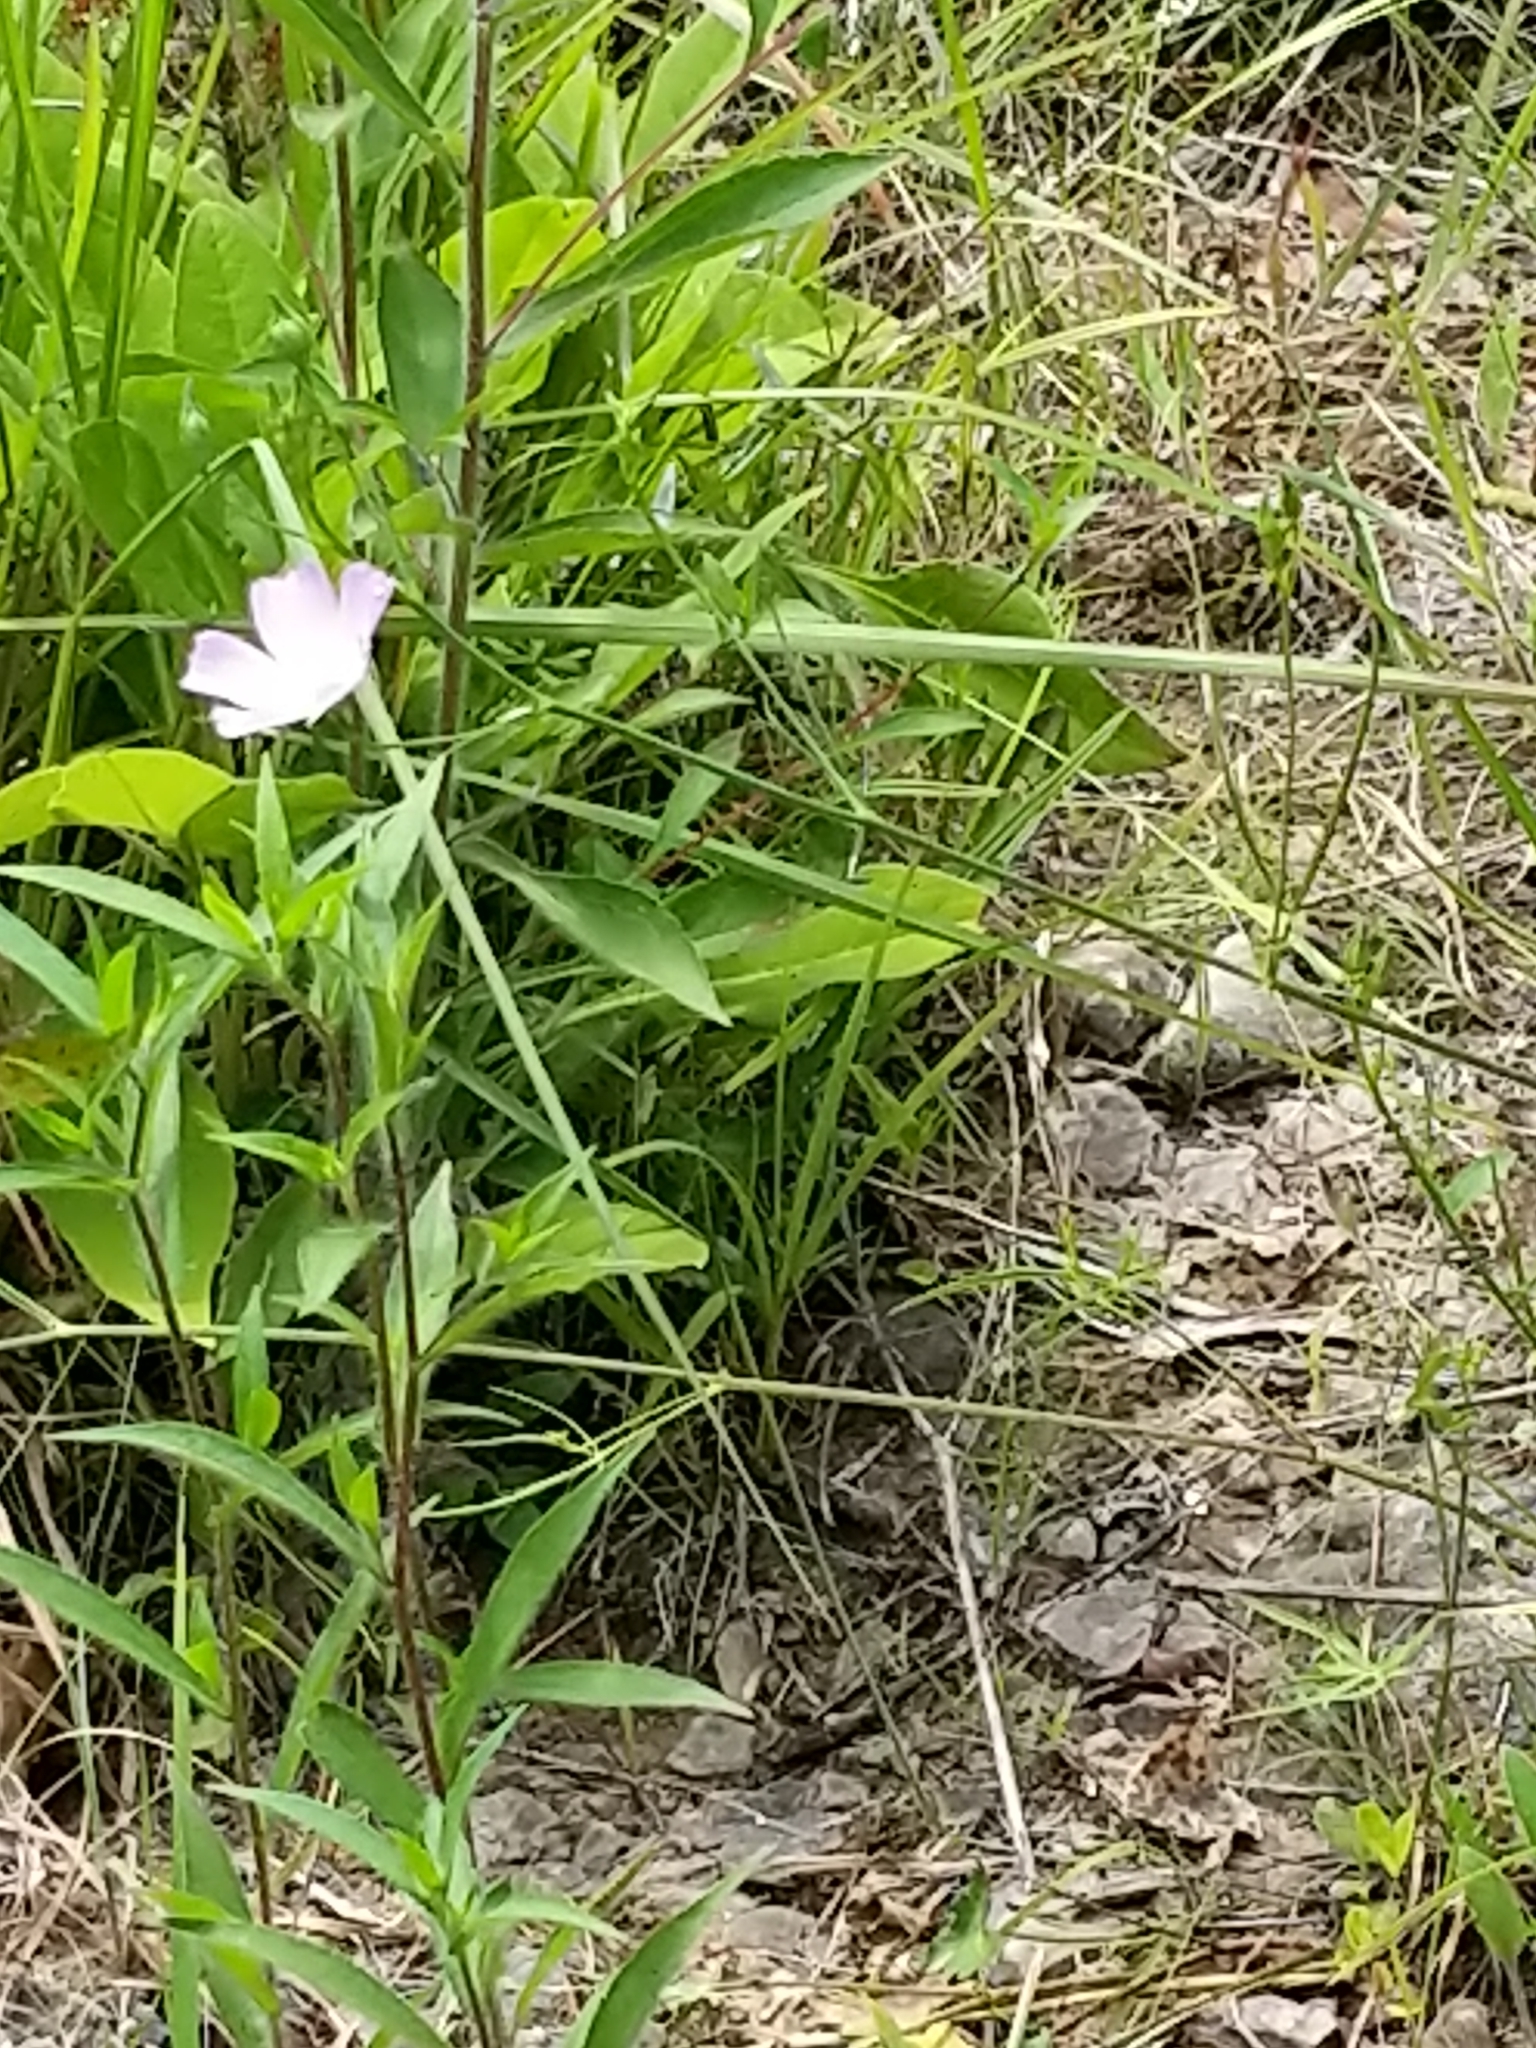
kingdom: Plantae
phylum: Tracheophyta
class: Magnoliopsida
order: Malvales
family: Malvaceae
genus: Callirhoe
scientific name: Callirhoe alcaeoides
